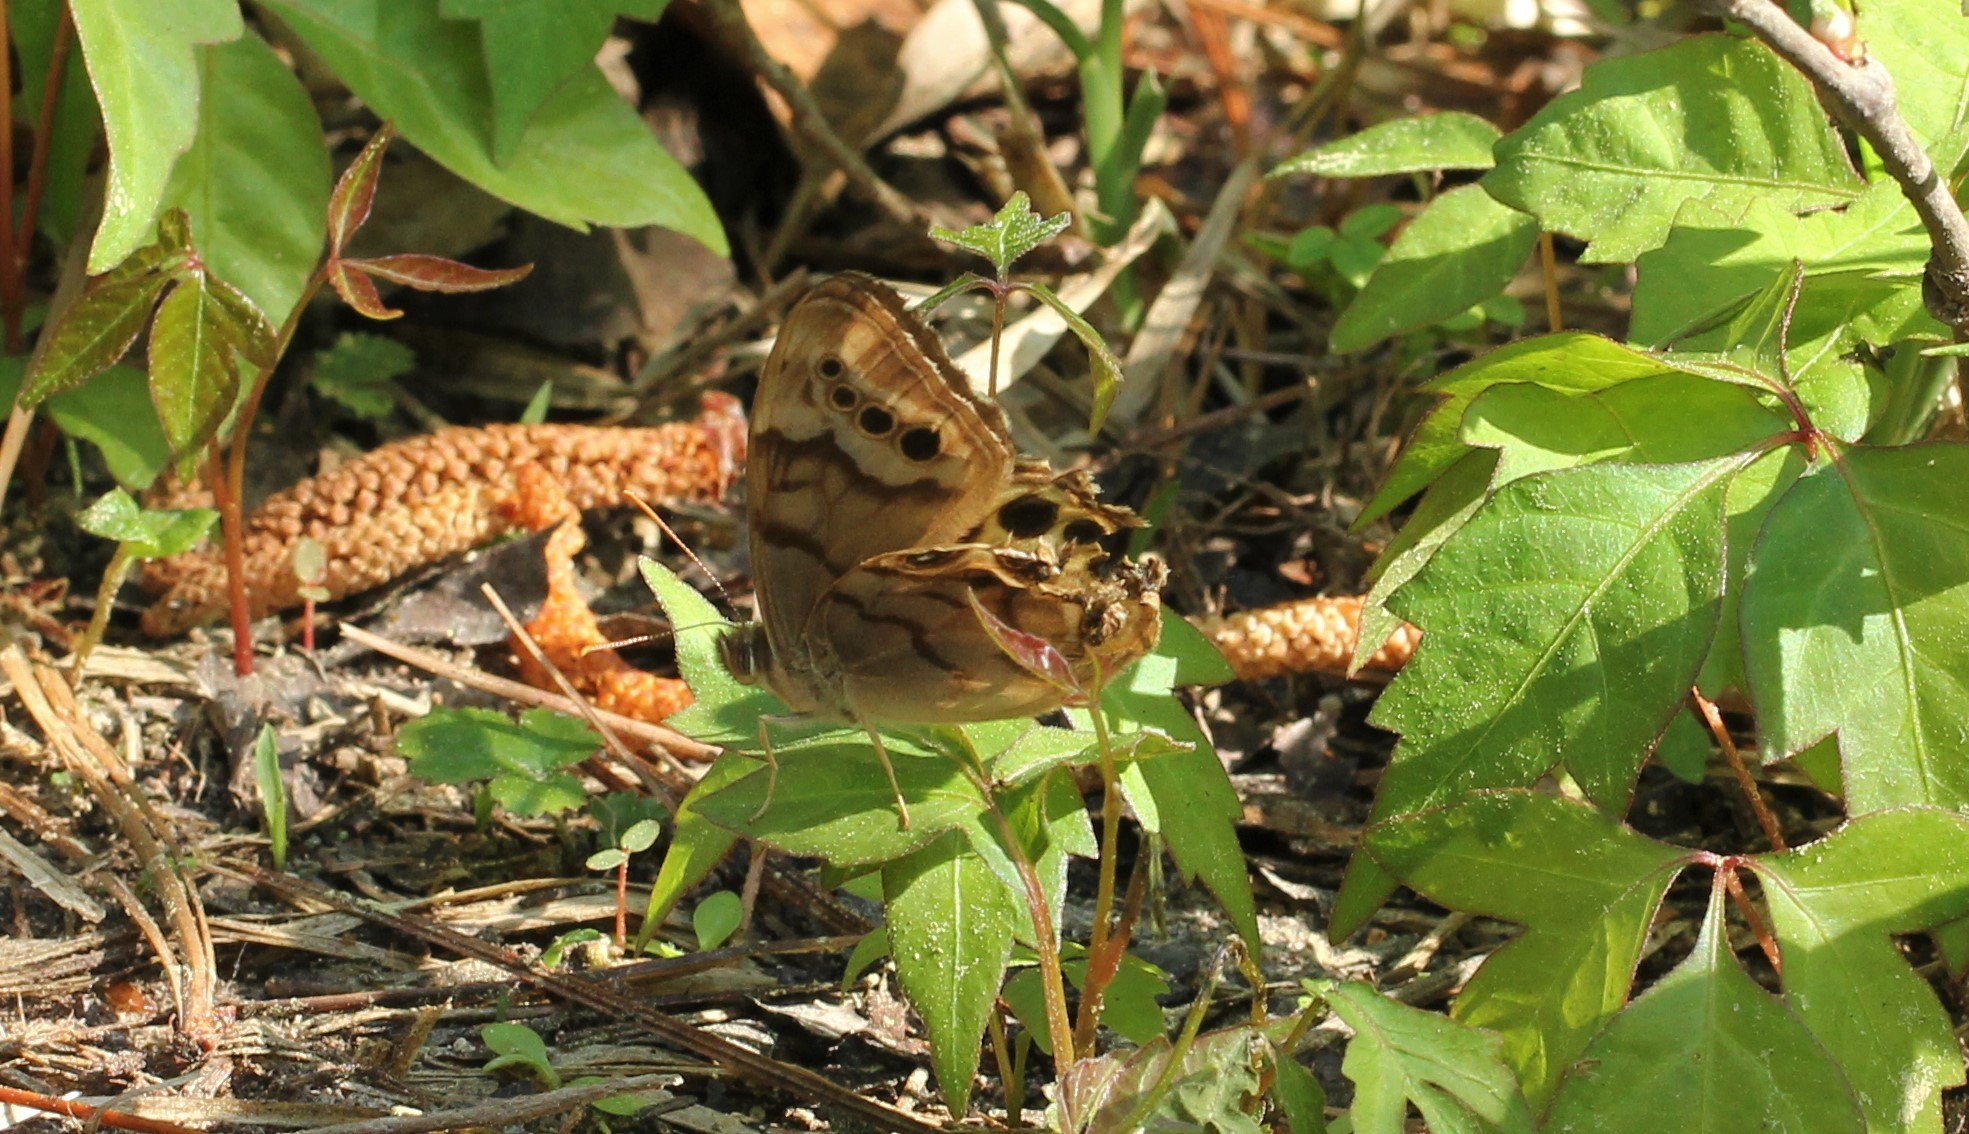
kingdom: Animalia
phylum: Arthropoda
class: Insecta
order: Lepidoptera
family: Nymphalidae
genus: Enodia
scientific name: Enodia portlandia
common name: Southern pearly-eye
